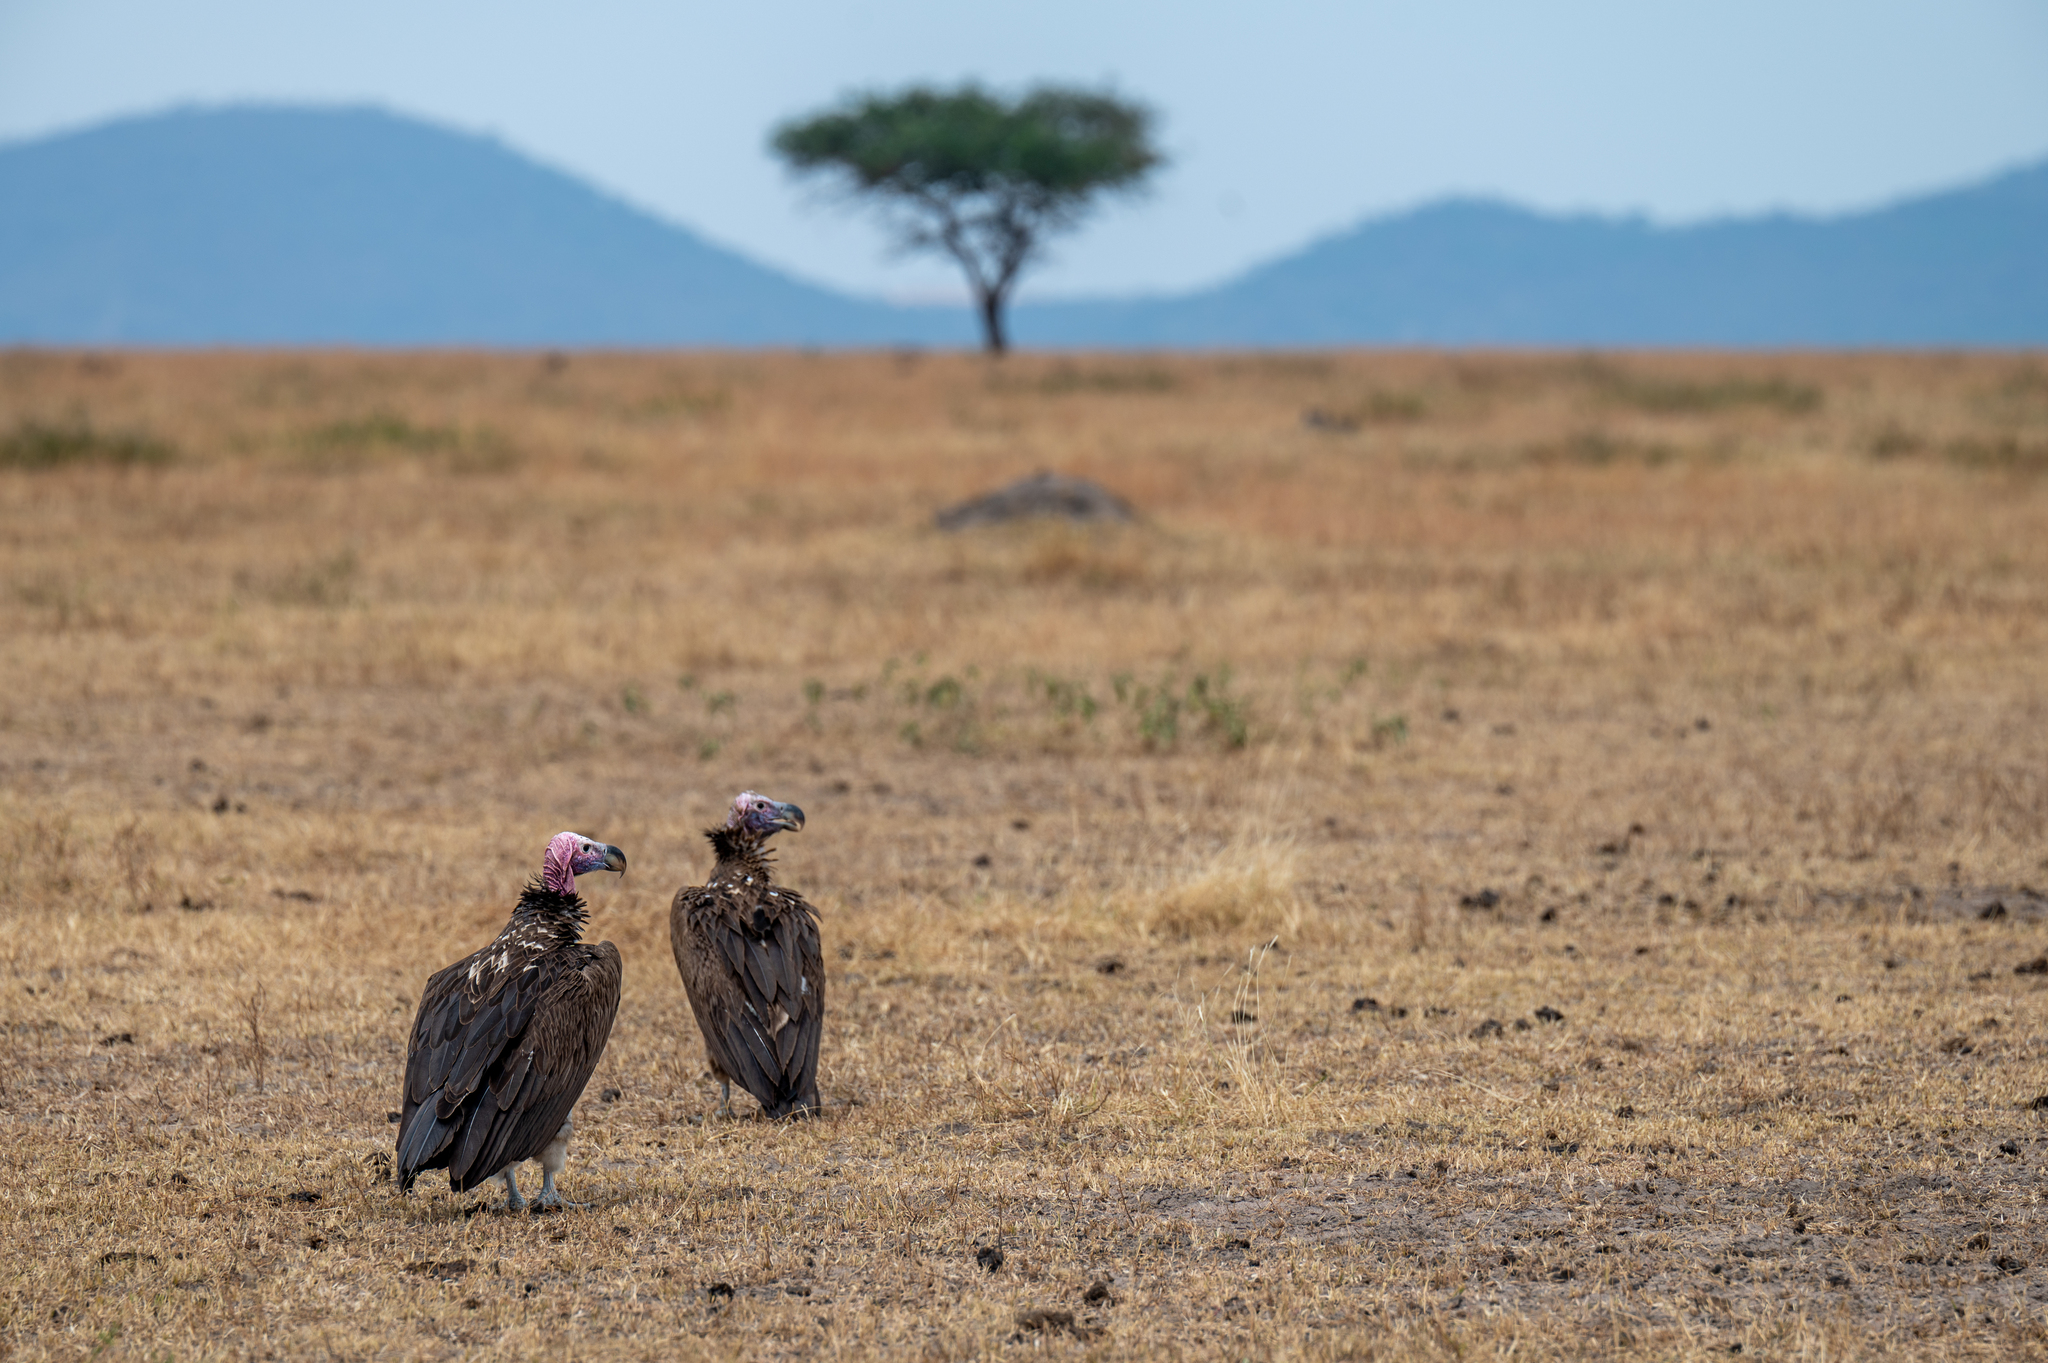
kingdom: Animalia
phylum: Chordata
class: Aves
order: Accipitriformes
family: Accipitridae
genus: Torgos
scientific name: Torgos tracheliotos
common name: Lappet-faced vulture
